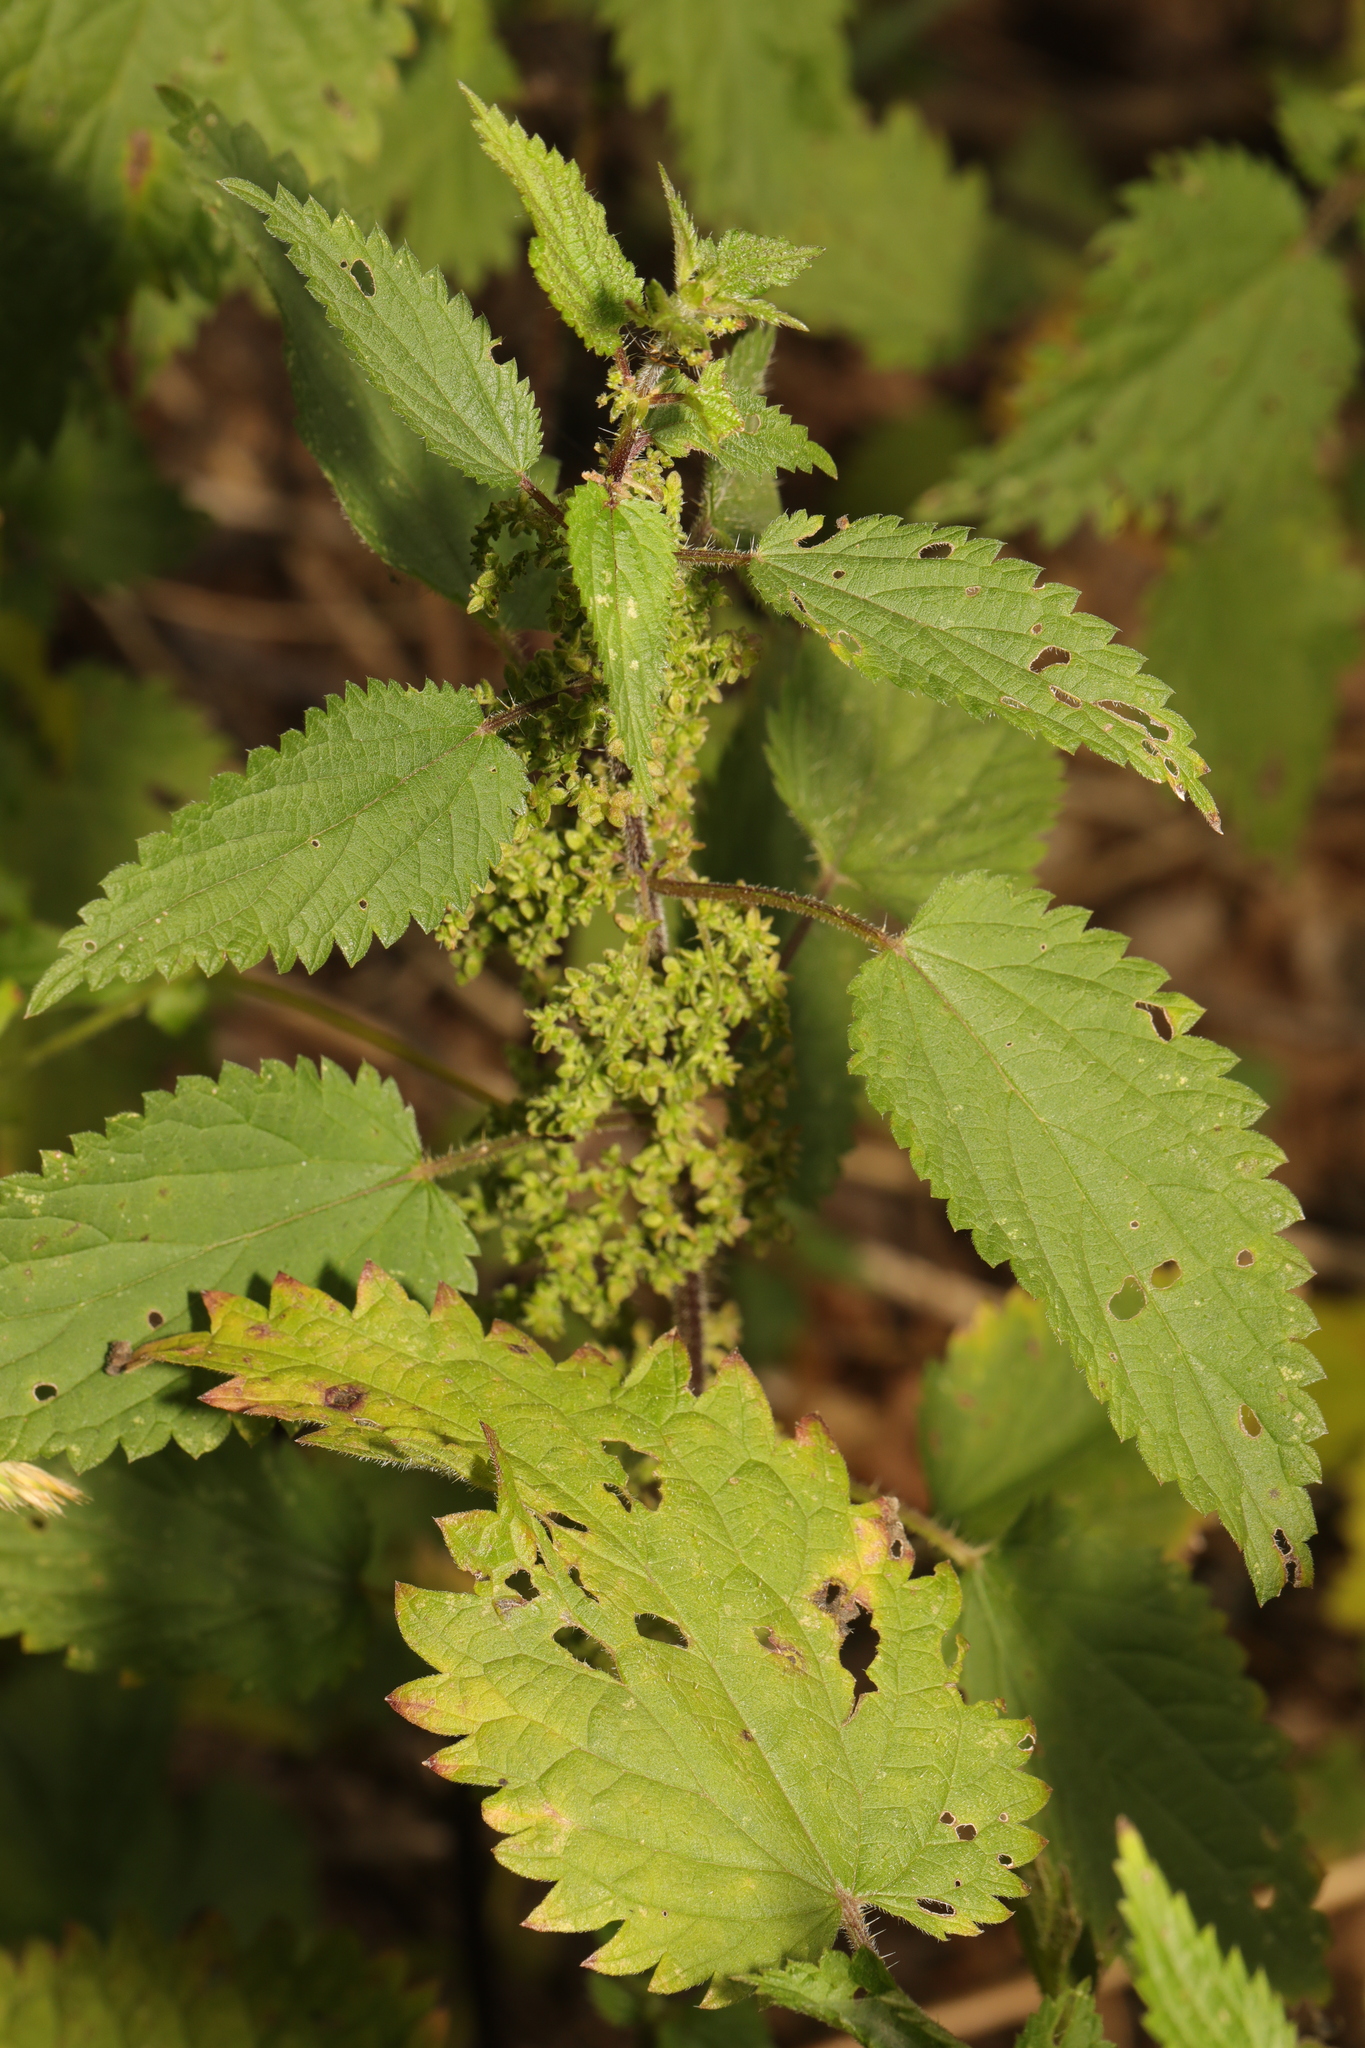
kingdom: Plantae
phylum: Tracheophyta
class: Magnoliopsida
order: Rosales
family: Urticaceae
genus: Urtica
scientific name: Urtica dioica
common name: Common nettle
